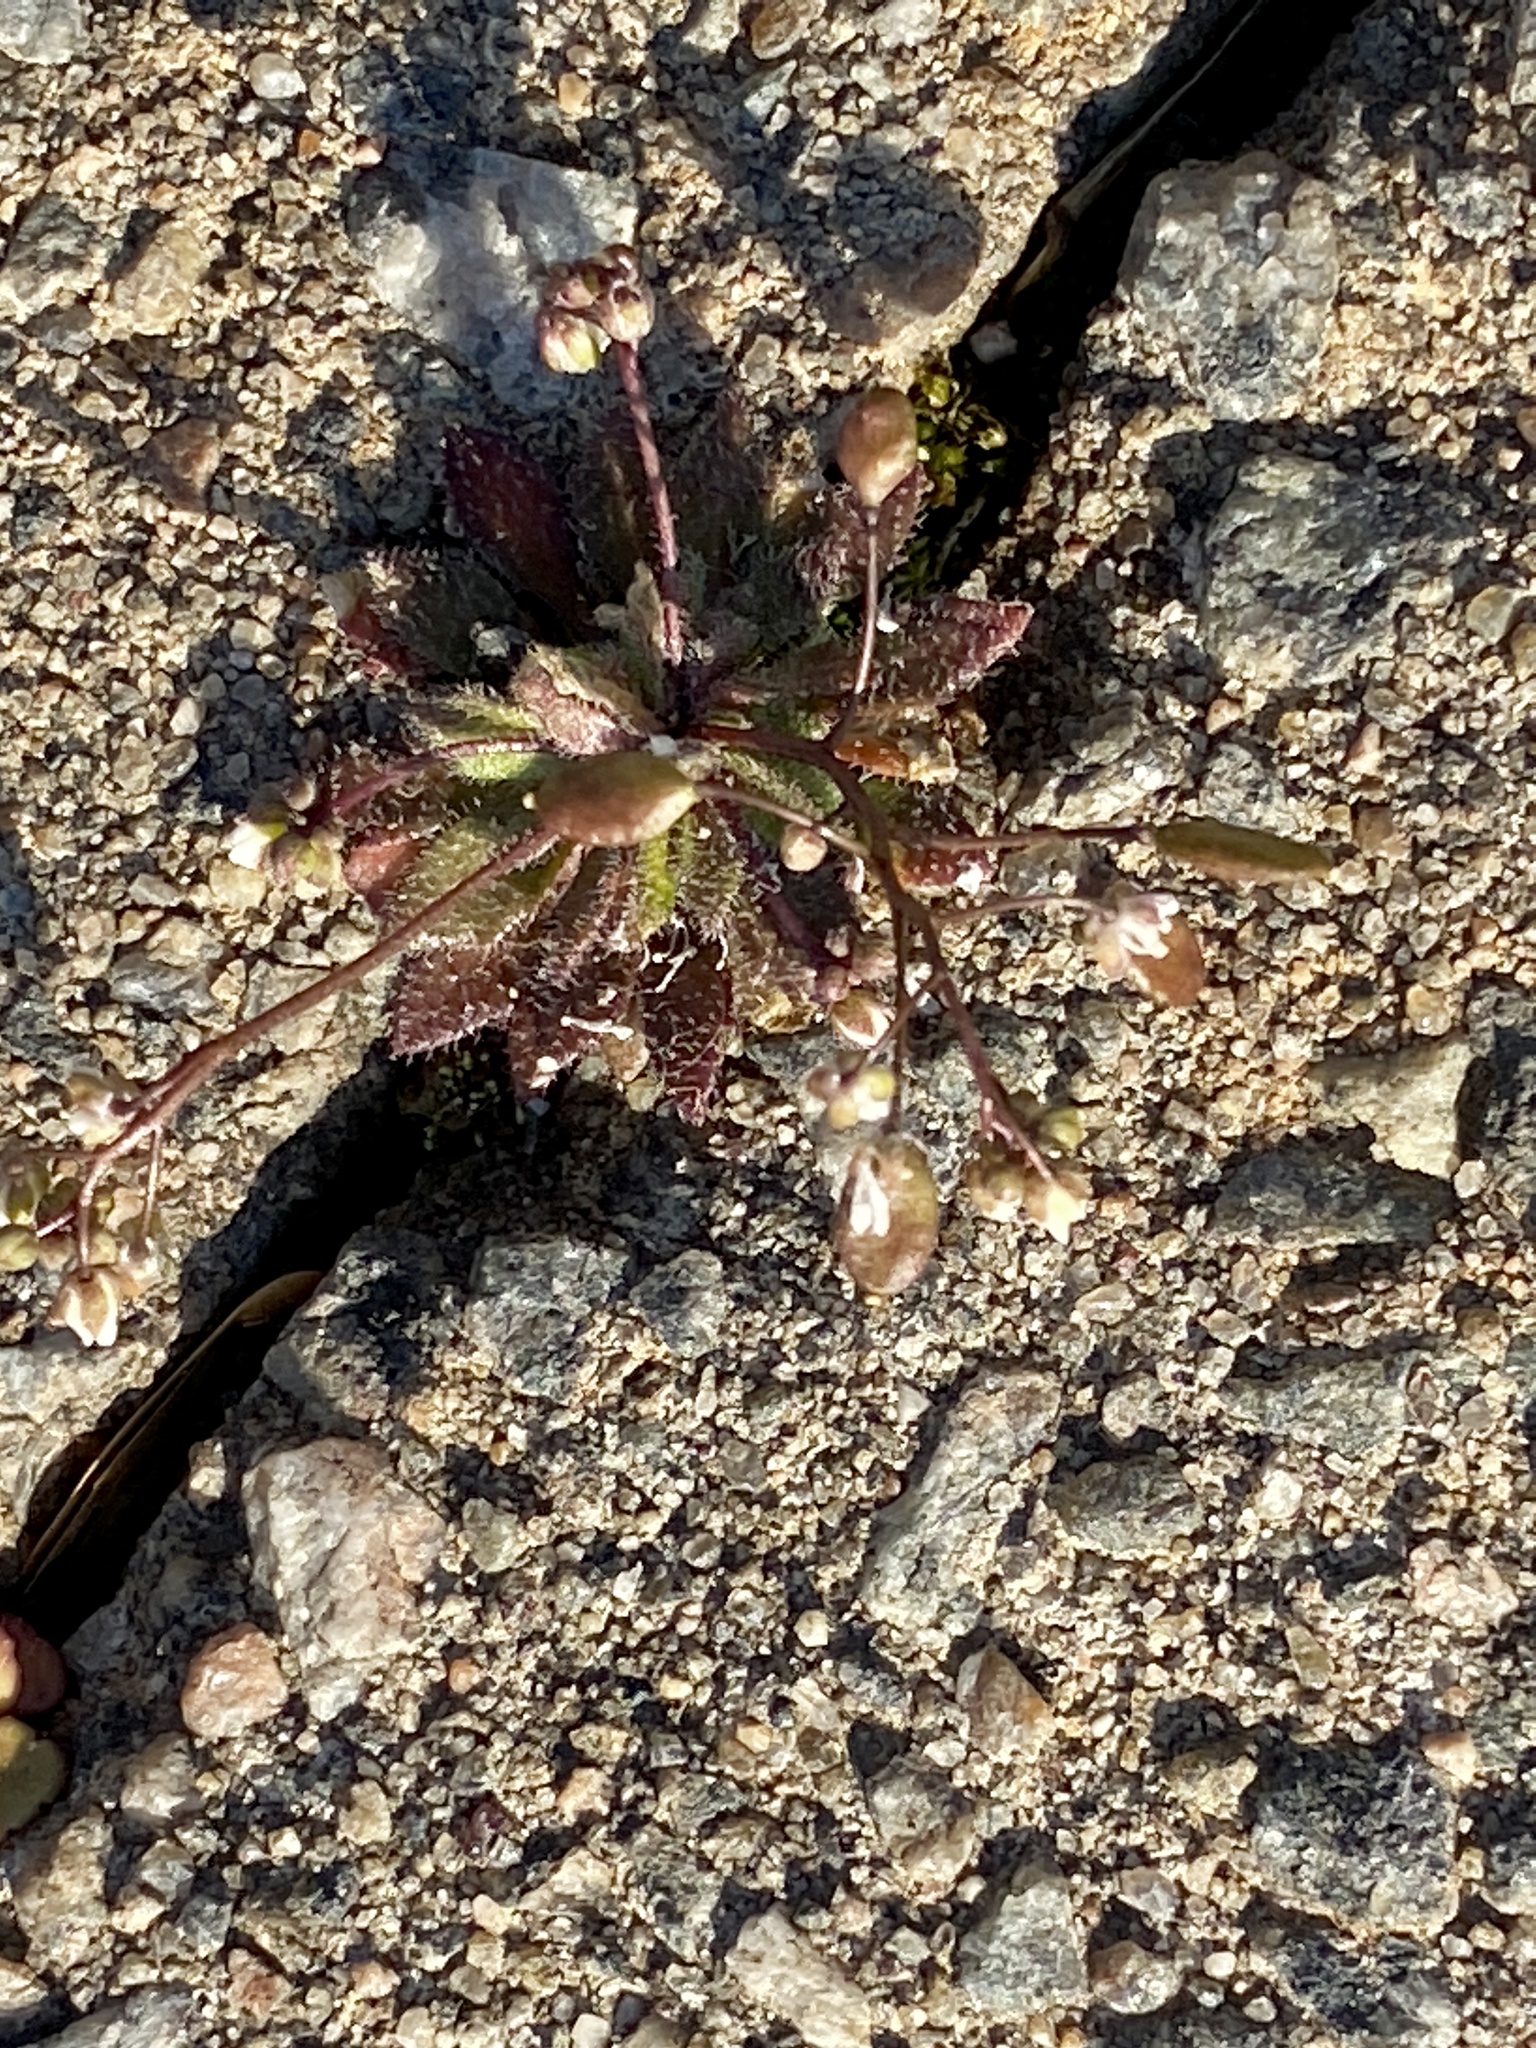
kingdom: Plantae
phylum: Tracheophyta
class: Magnoliopsida
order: Brassicales
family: Brassicaceae
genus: Draba
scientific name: Draba verna
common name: Spring draba
